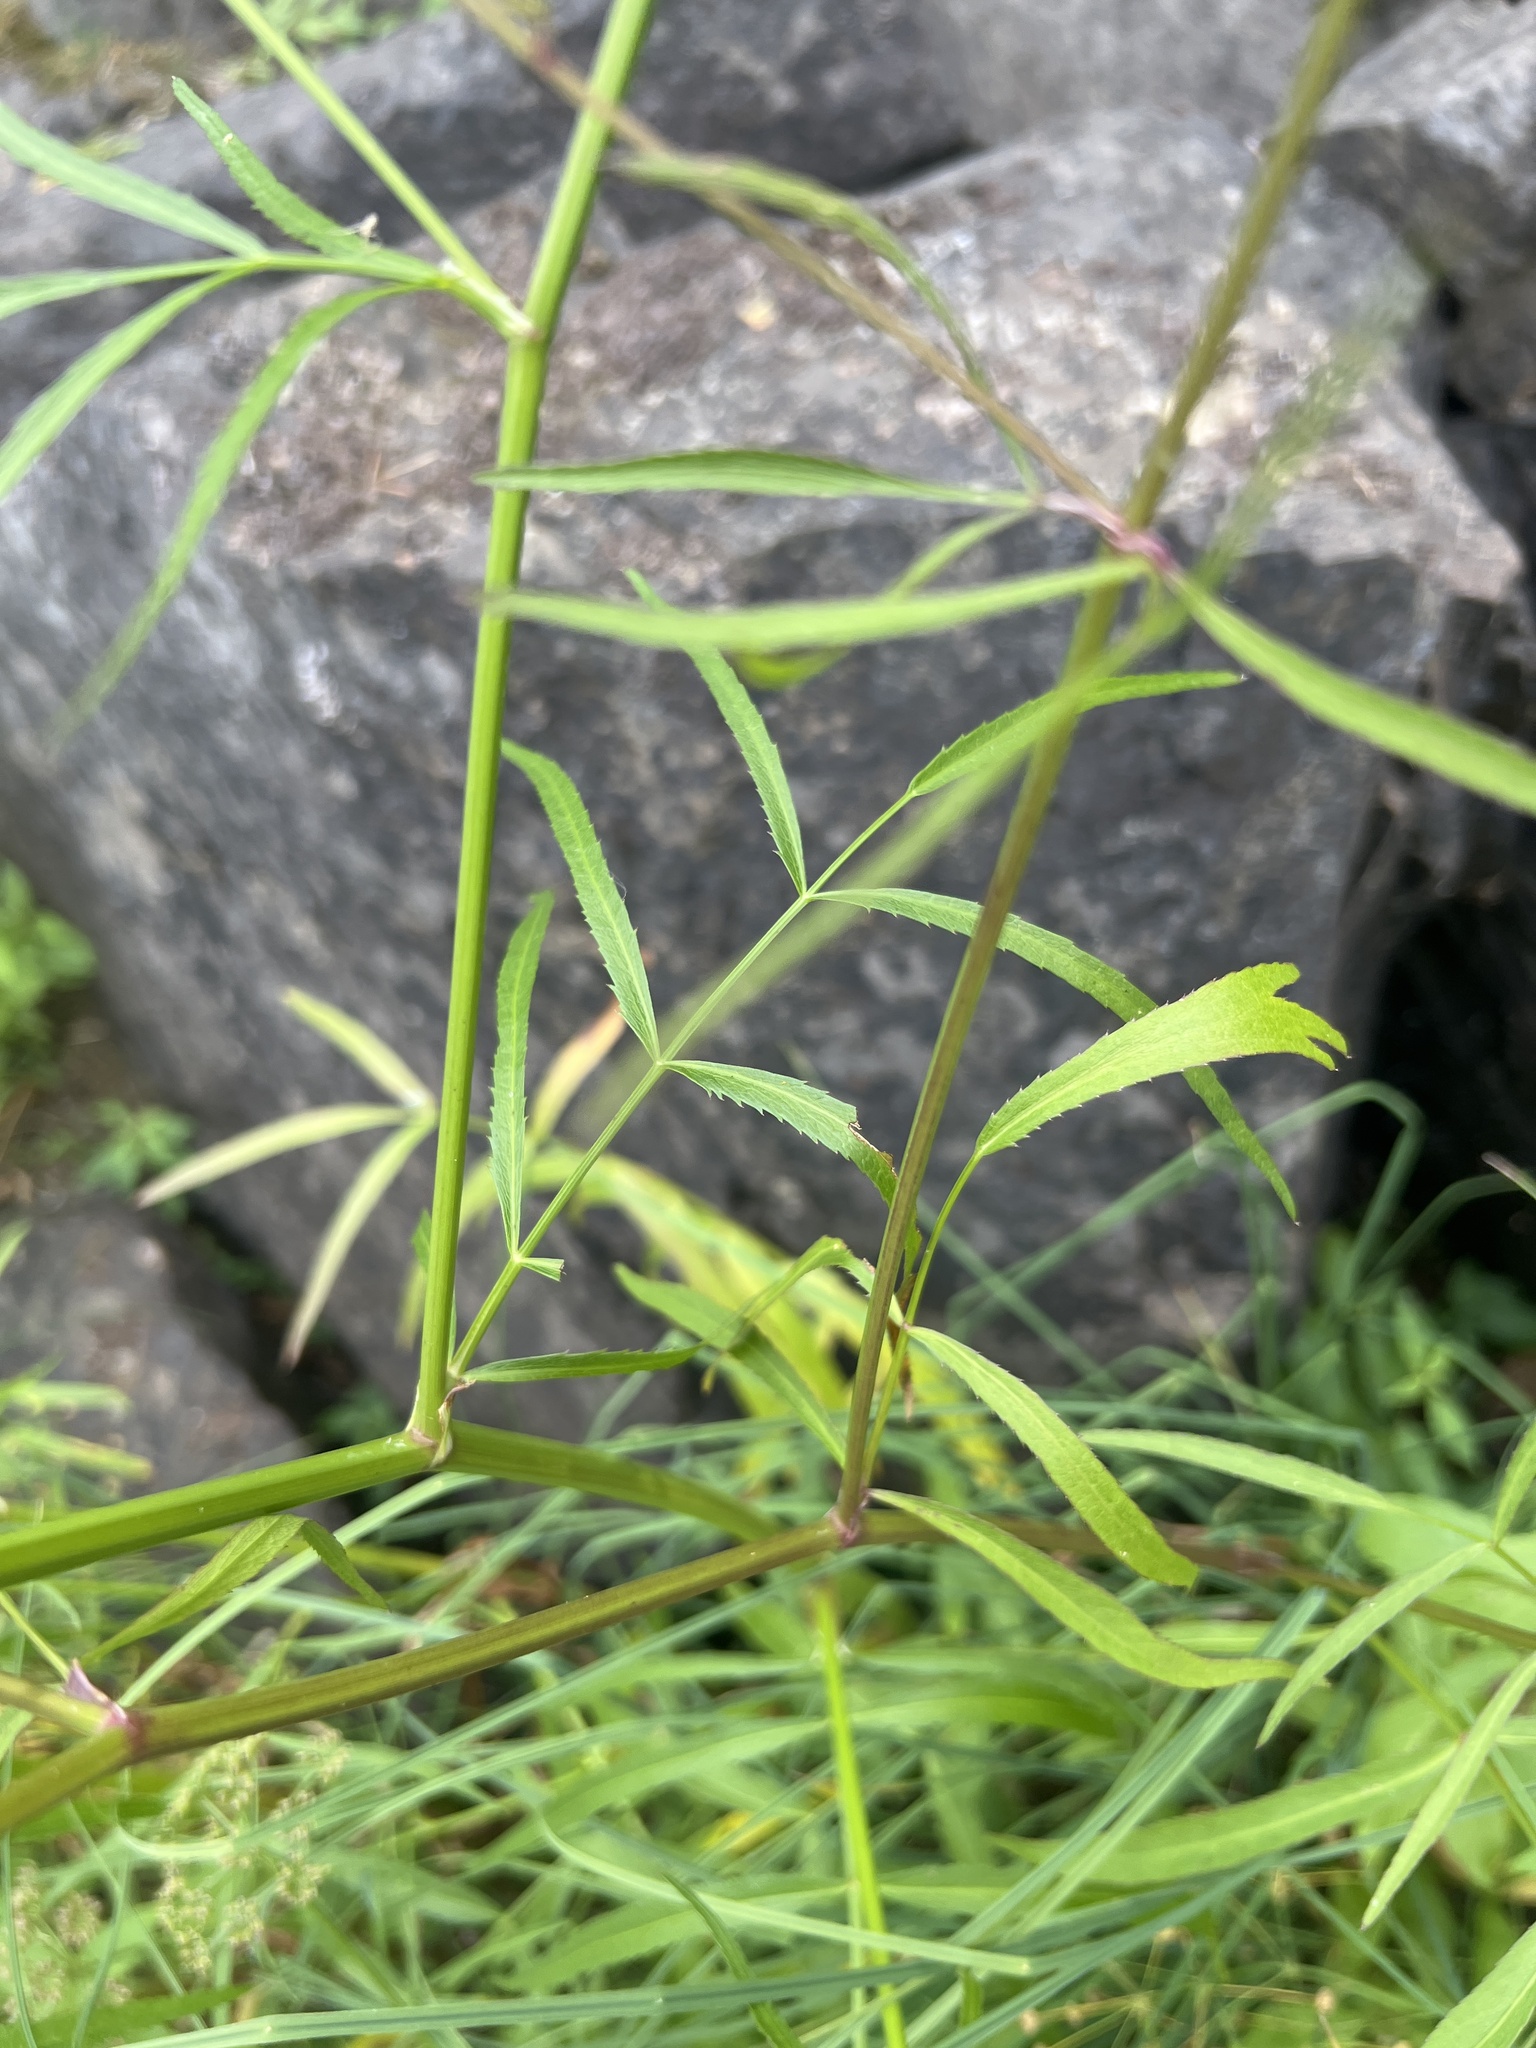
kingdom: Plantae
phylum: Tracheophyta
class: Magnoliopsida
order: Apiales
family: Apiaceae
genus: Sium
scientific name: Sium suave
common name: Hemlock water-parsnip
